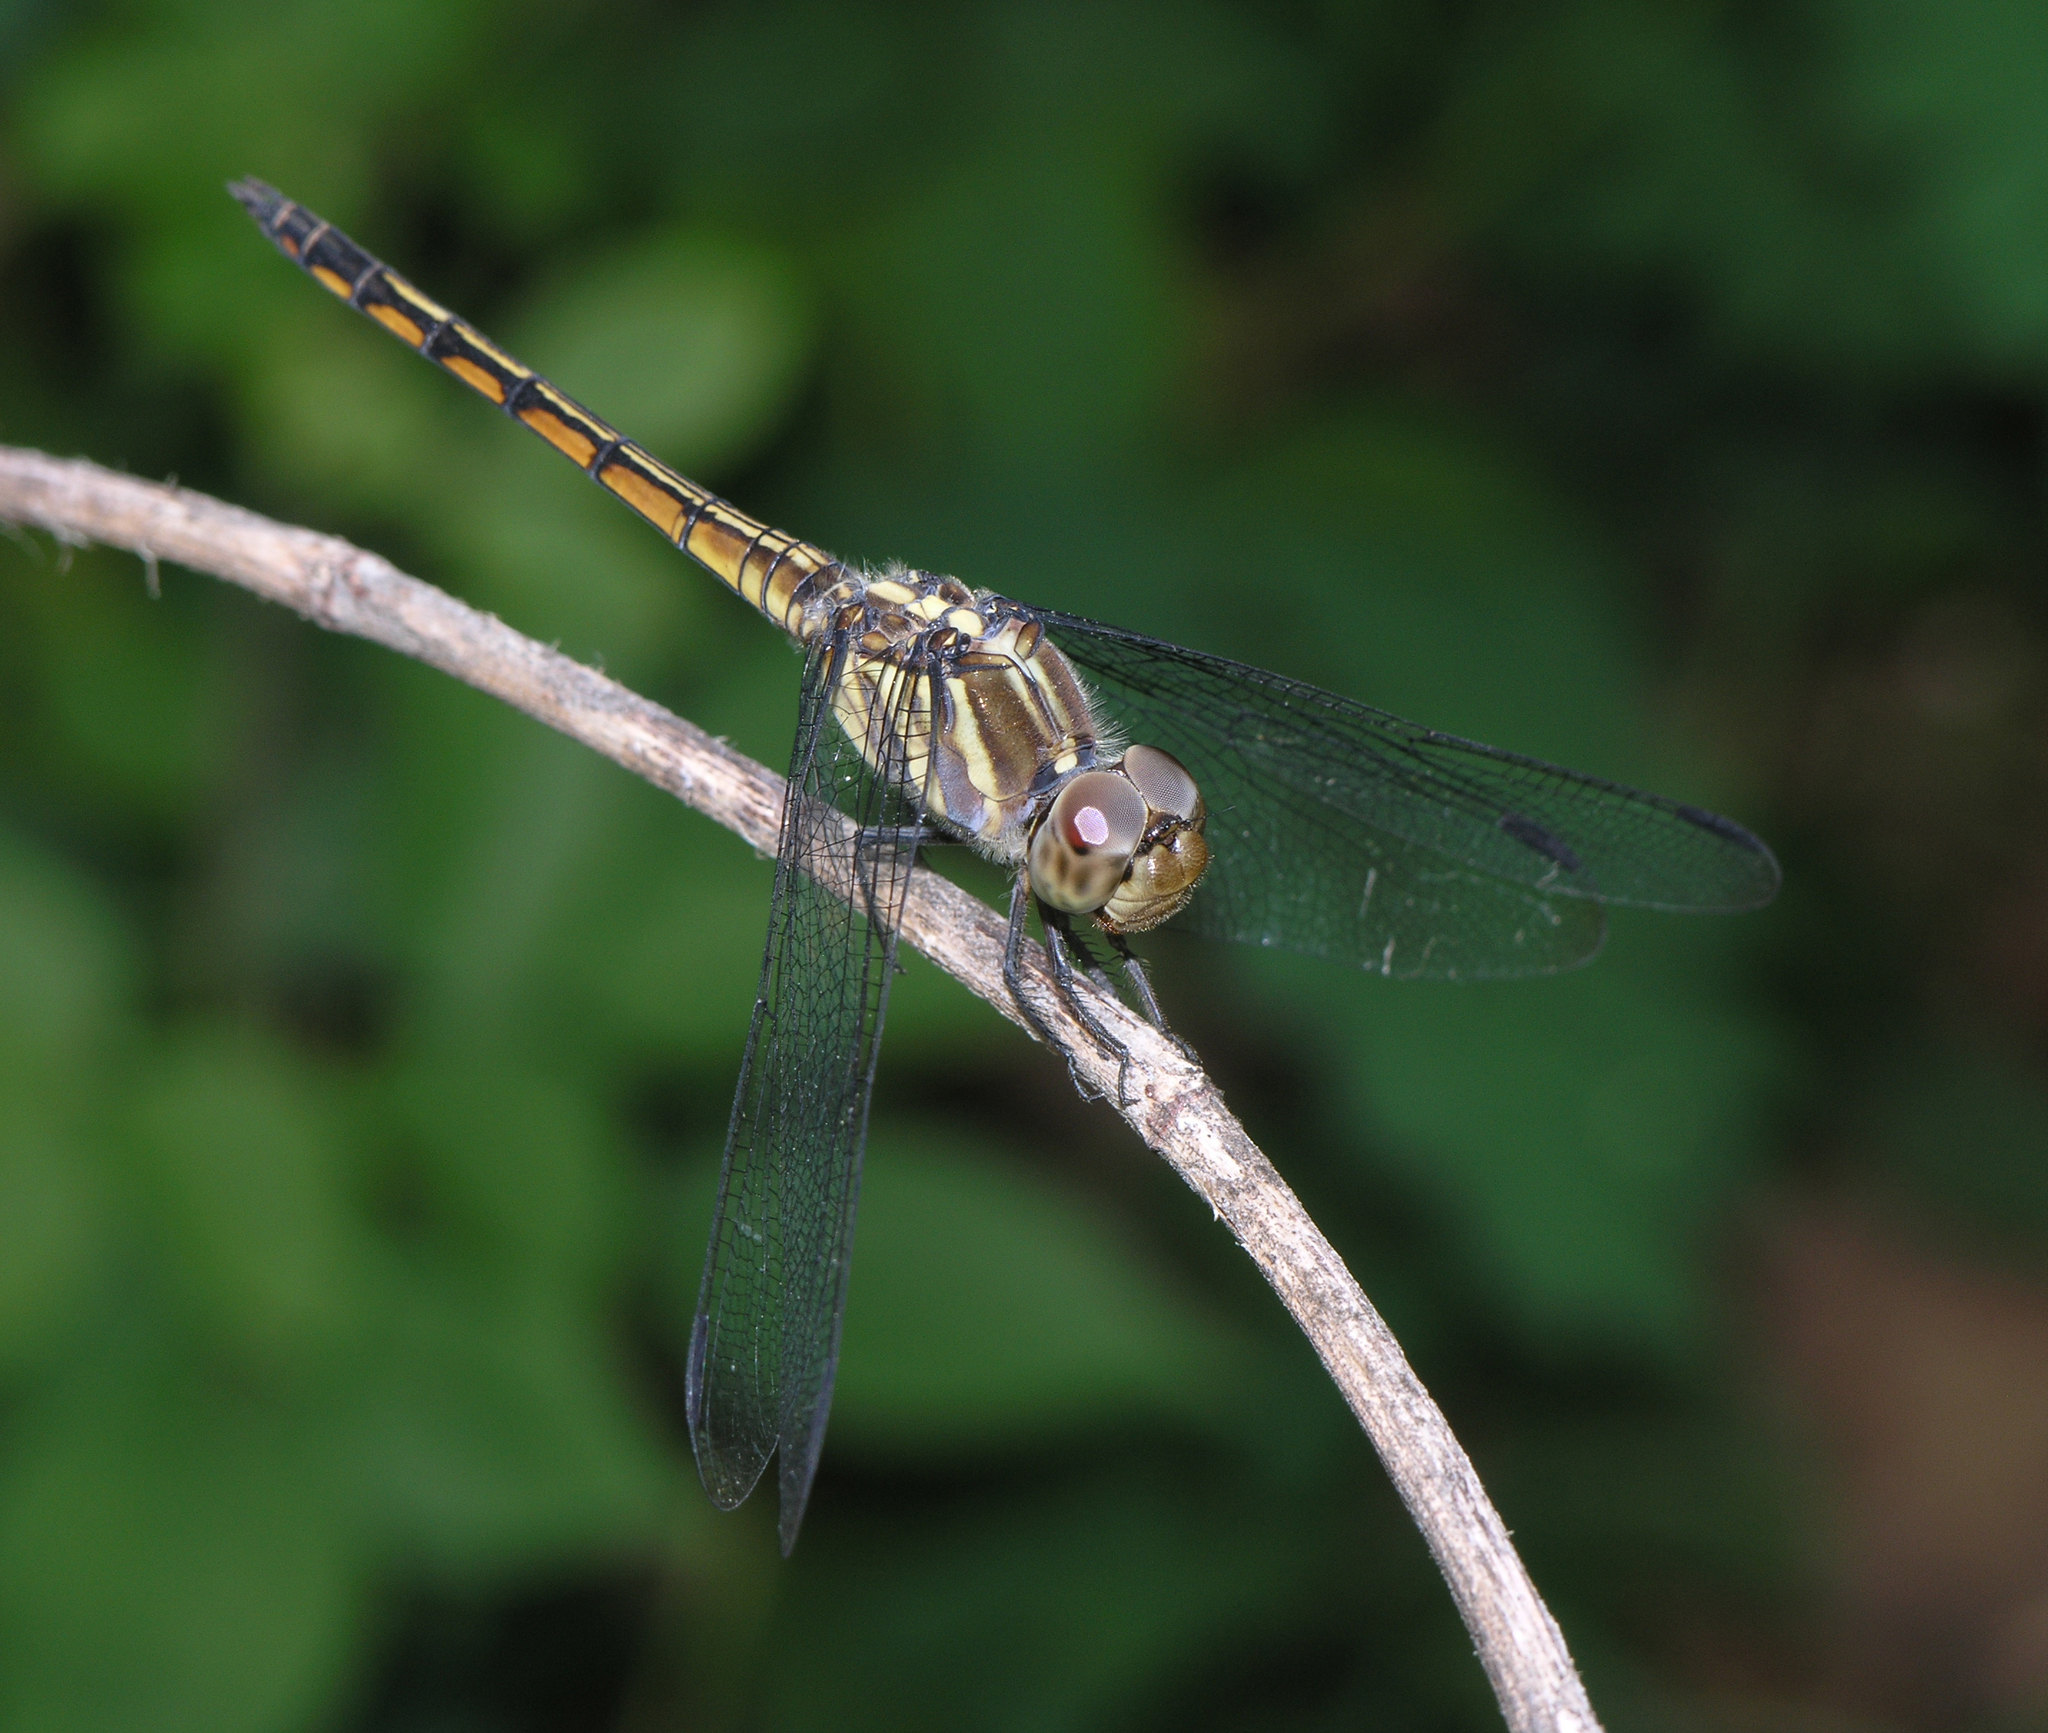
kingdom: Animalia
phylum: Arthropoda
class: Insecta
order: Odonata
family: Libellulidae
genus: Potamarcha
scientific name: Potamarcha congener
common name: Blue chaser
